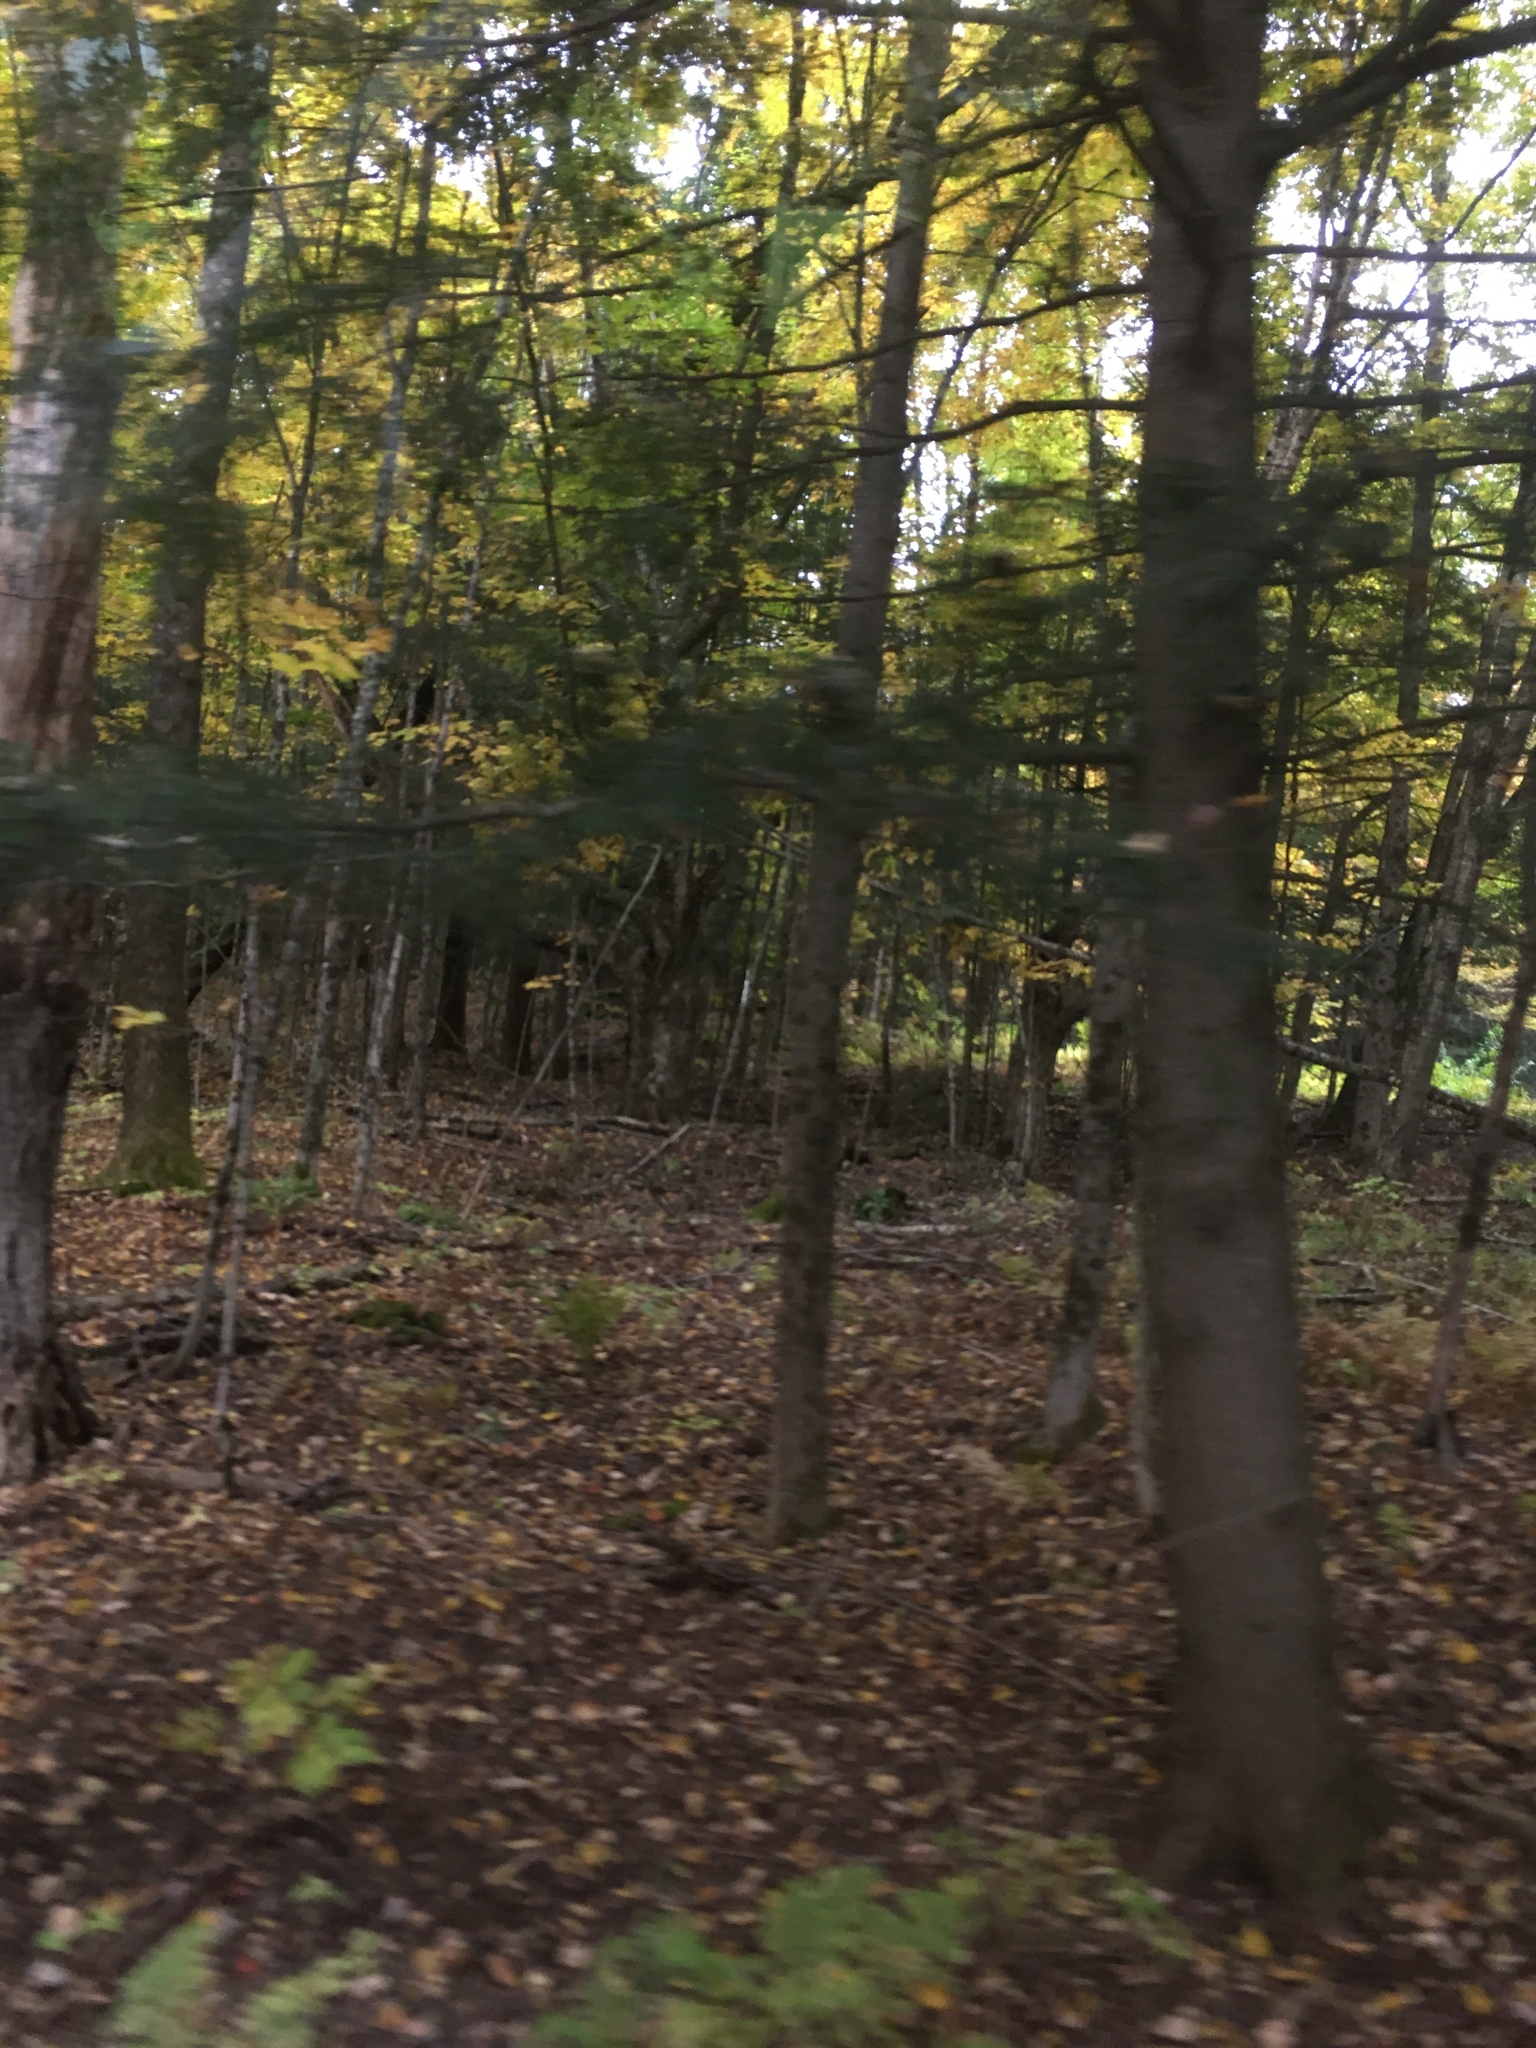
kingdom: Plantae
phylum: Tracheophyta
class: Pinopsida
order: Pinales
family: Pinaceae
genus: Tsuga
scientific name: Tsuga canadensis
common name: Eastern hemlock
